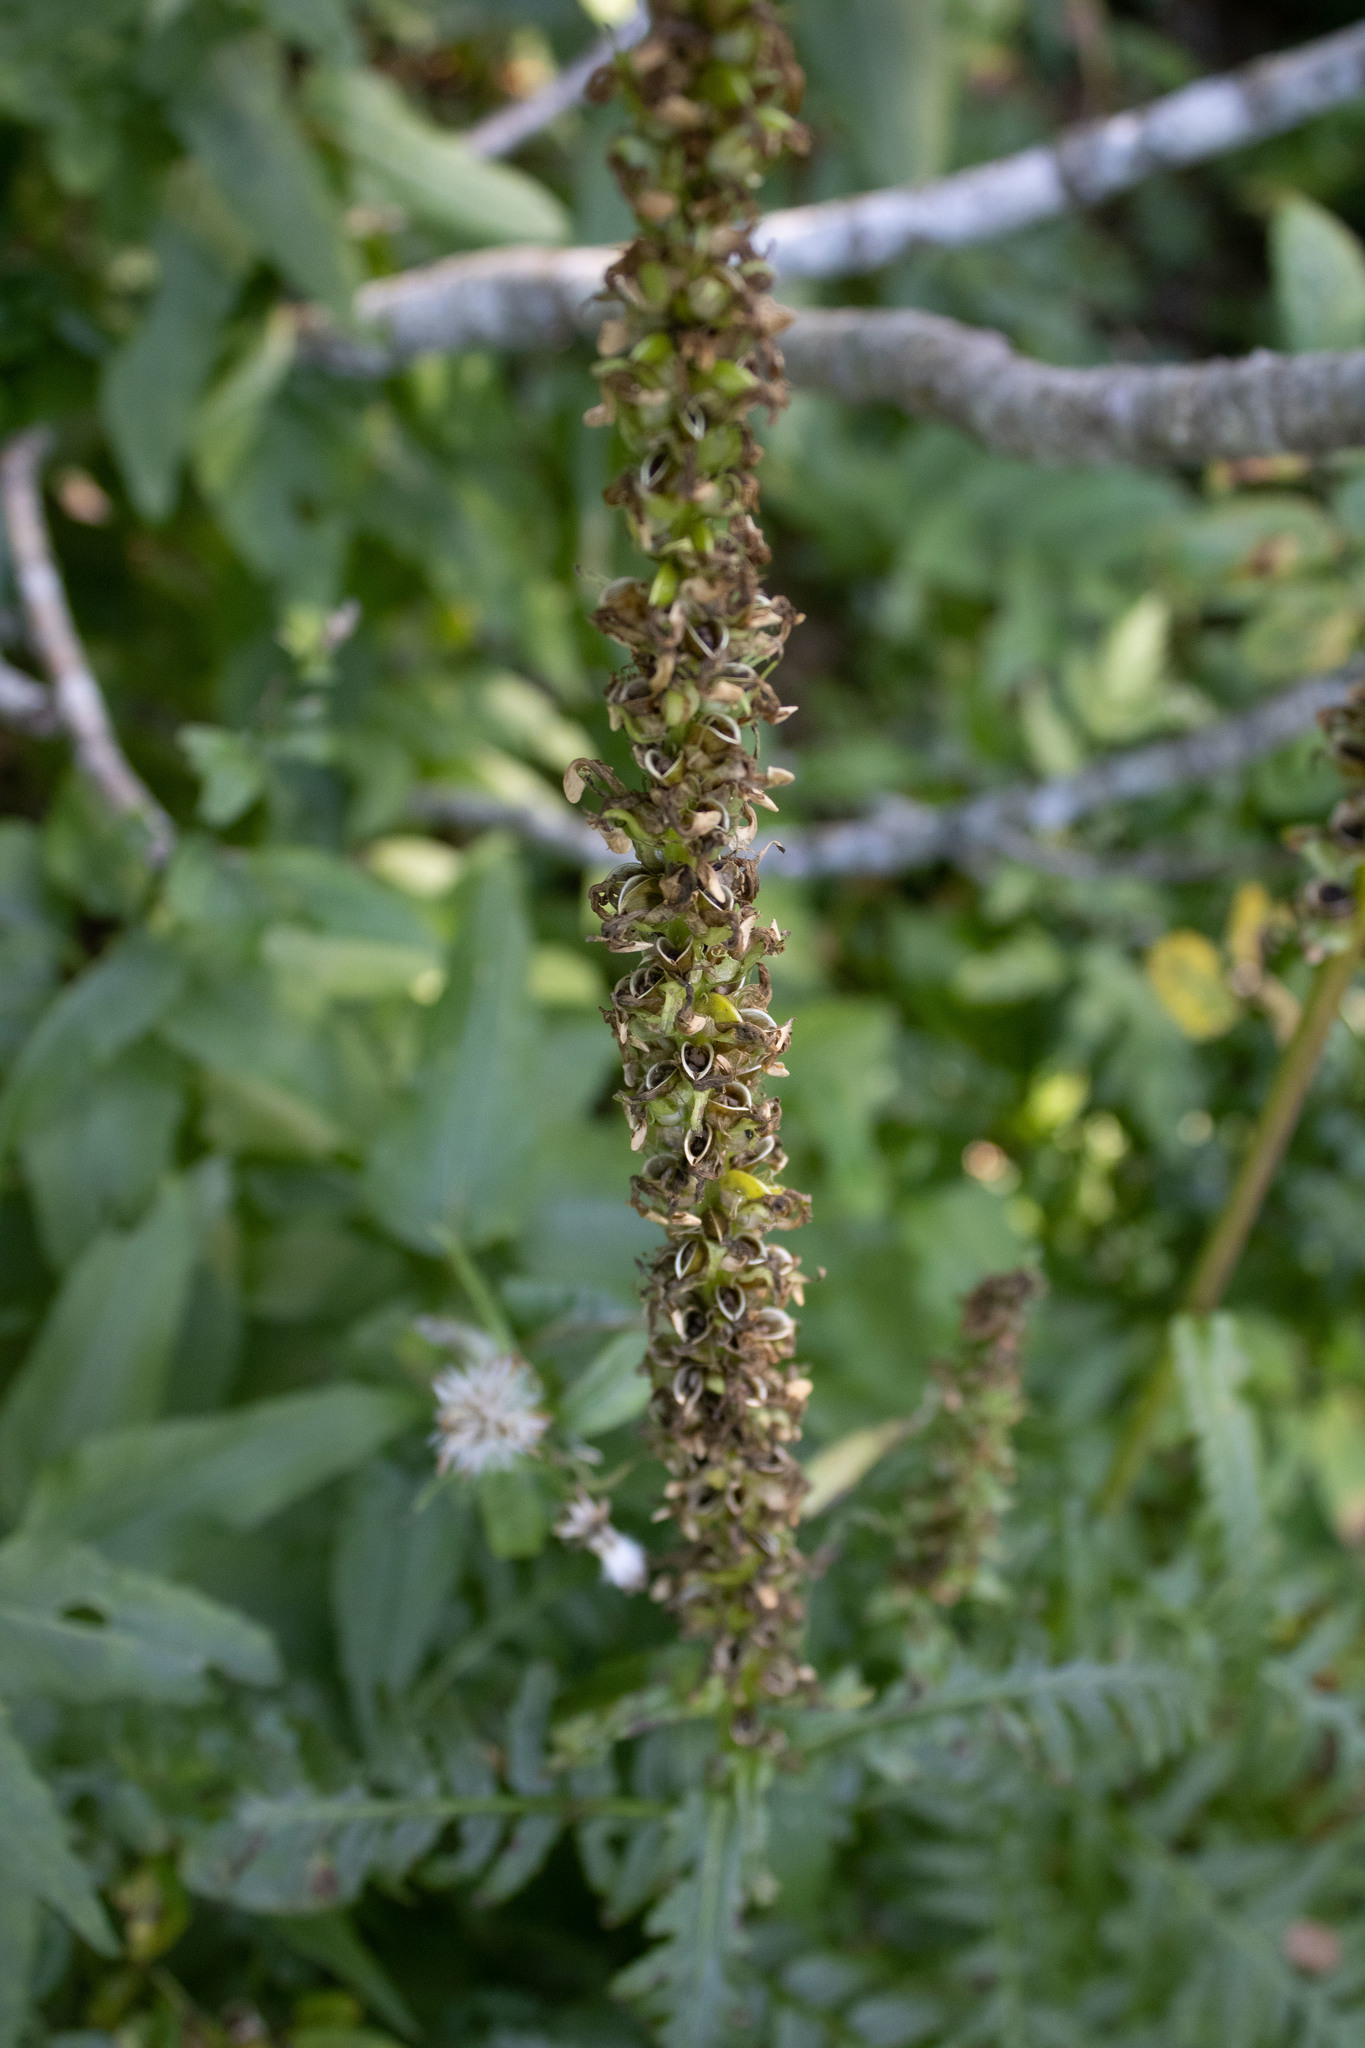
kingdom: Plantae
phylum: Tracheophyta
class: Magnoliopsida
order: Lamiales
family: Orobanchaceae
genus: Pedicularis
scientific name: Pedicularis bracteosa
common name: Bracted lousewort
